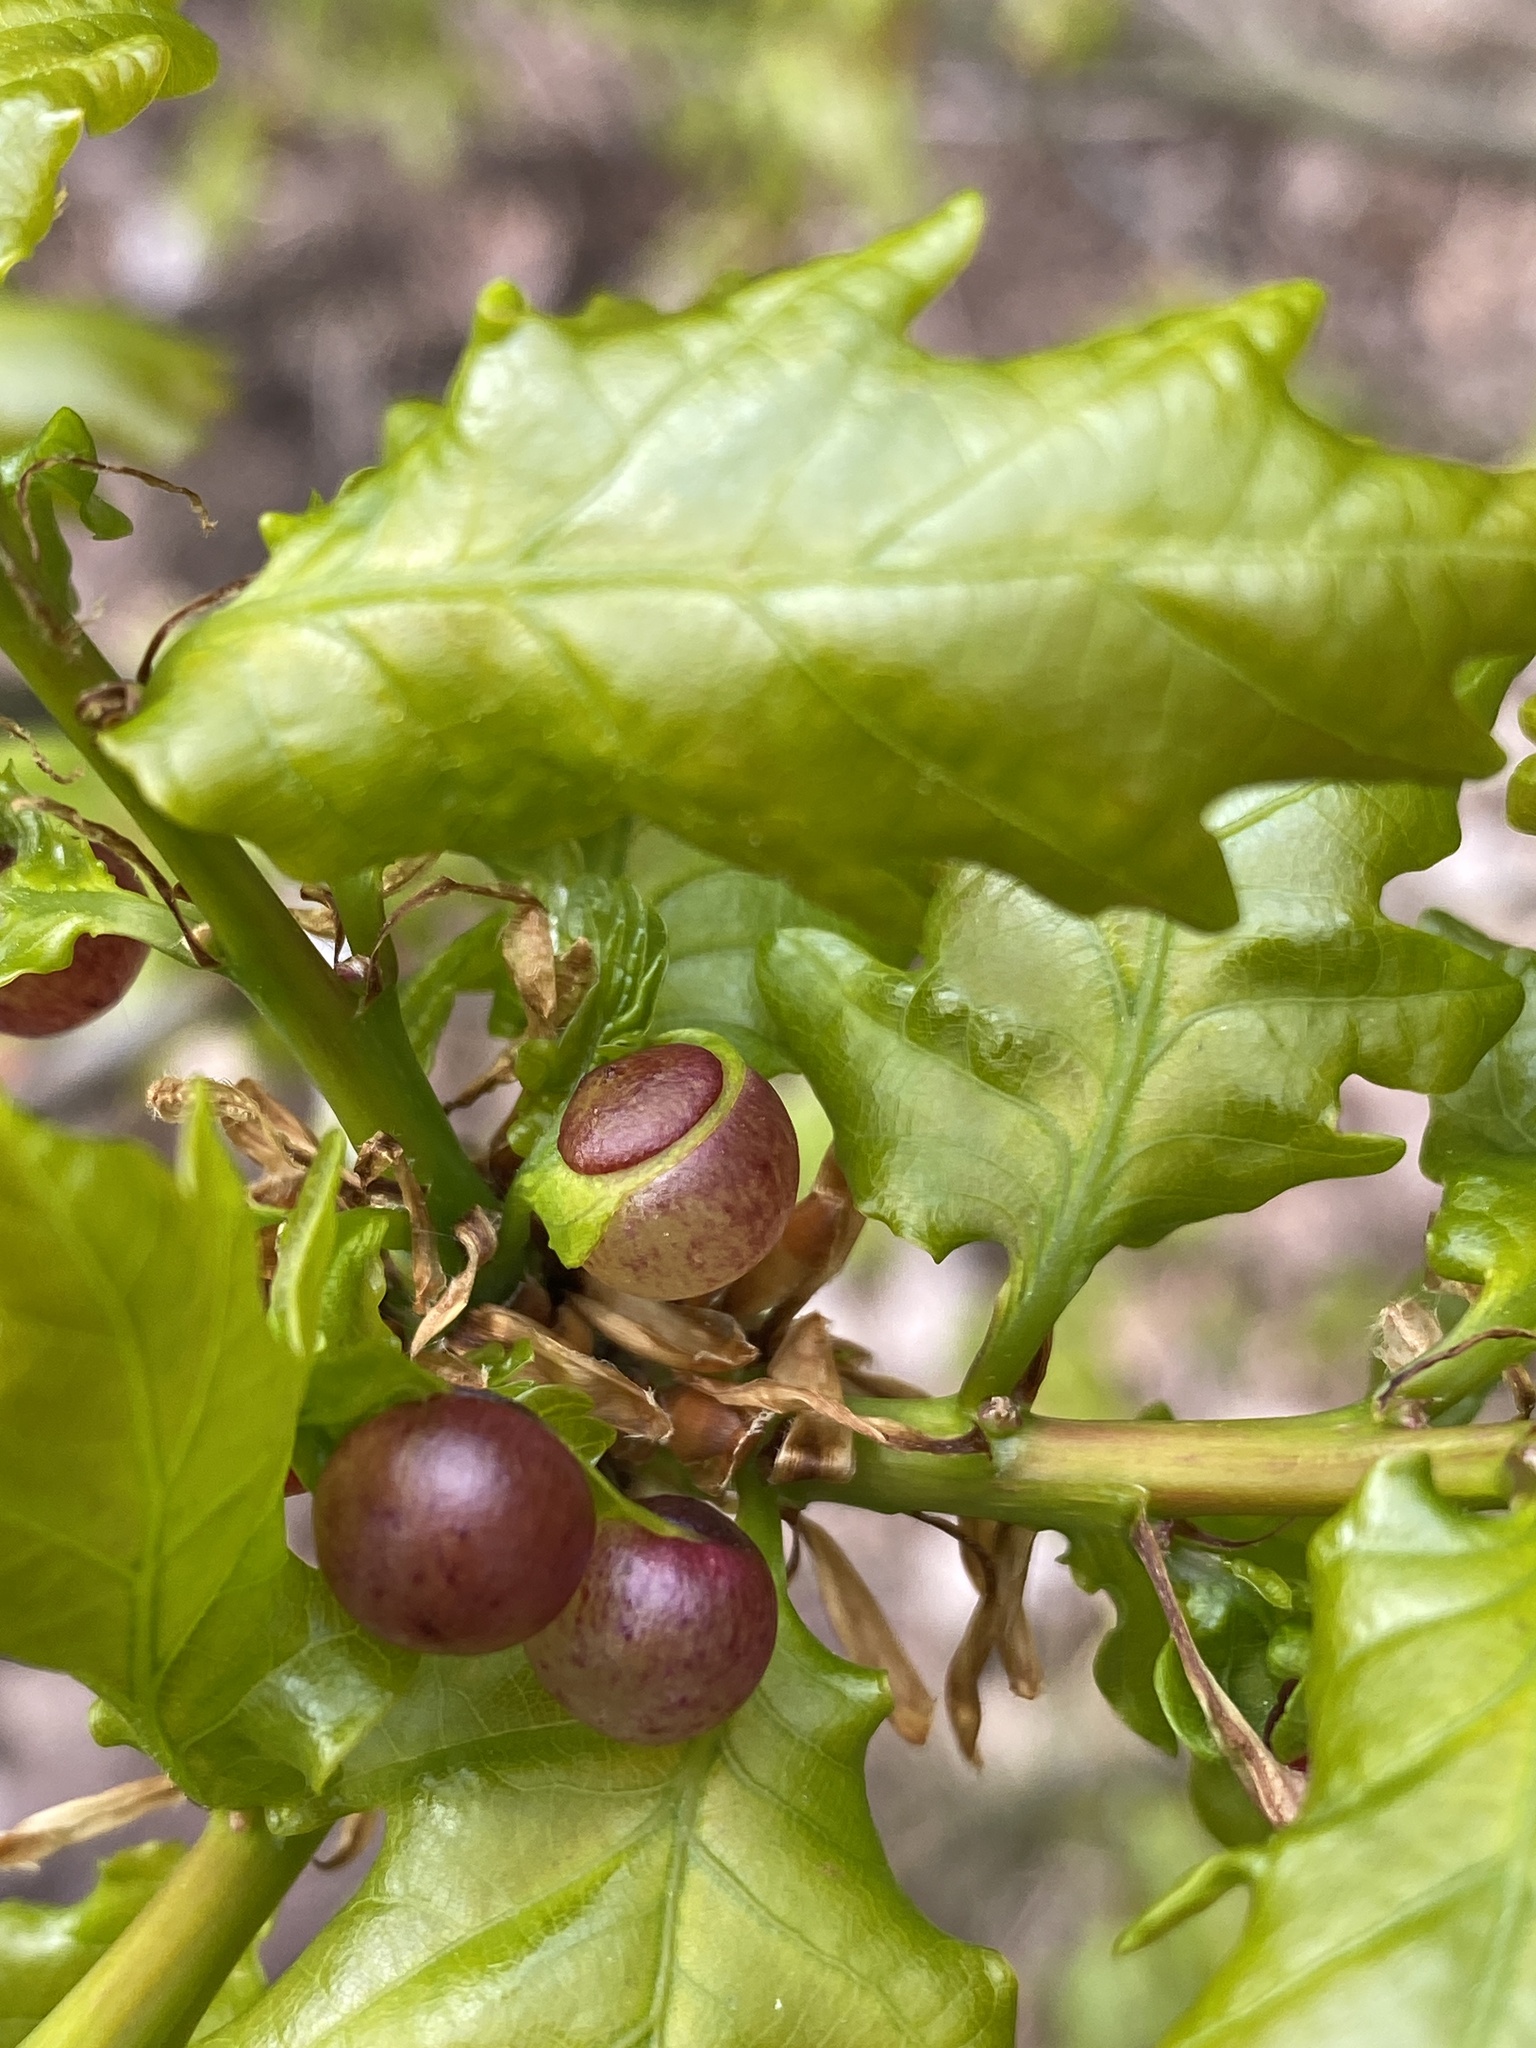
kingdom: Animalia
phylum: Arthropoda
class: Insecta
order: Hymenoptera
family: Cynipidae
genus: Neuroterus
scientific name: Neuroterus quercusbaccarum
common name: Common spangle gall
